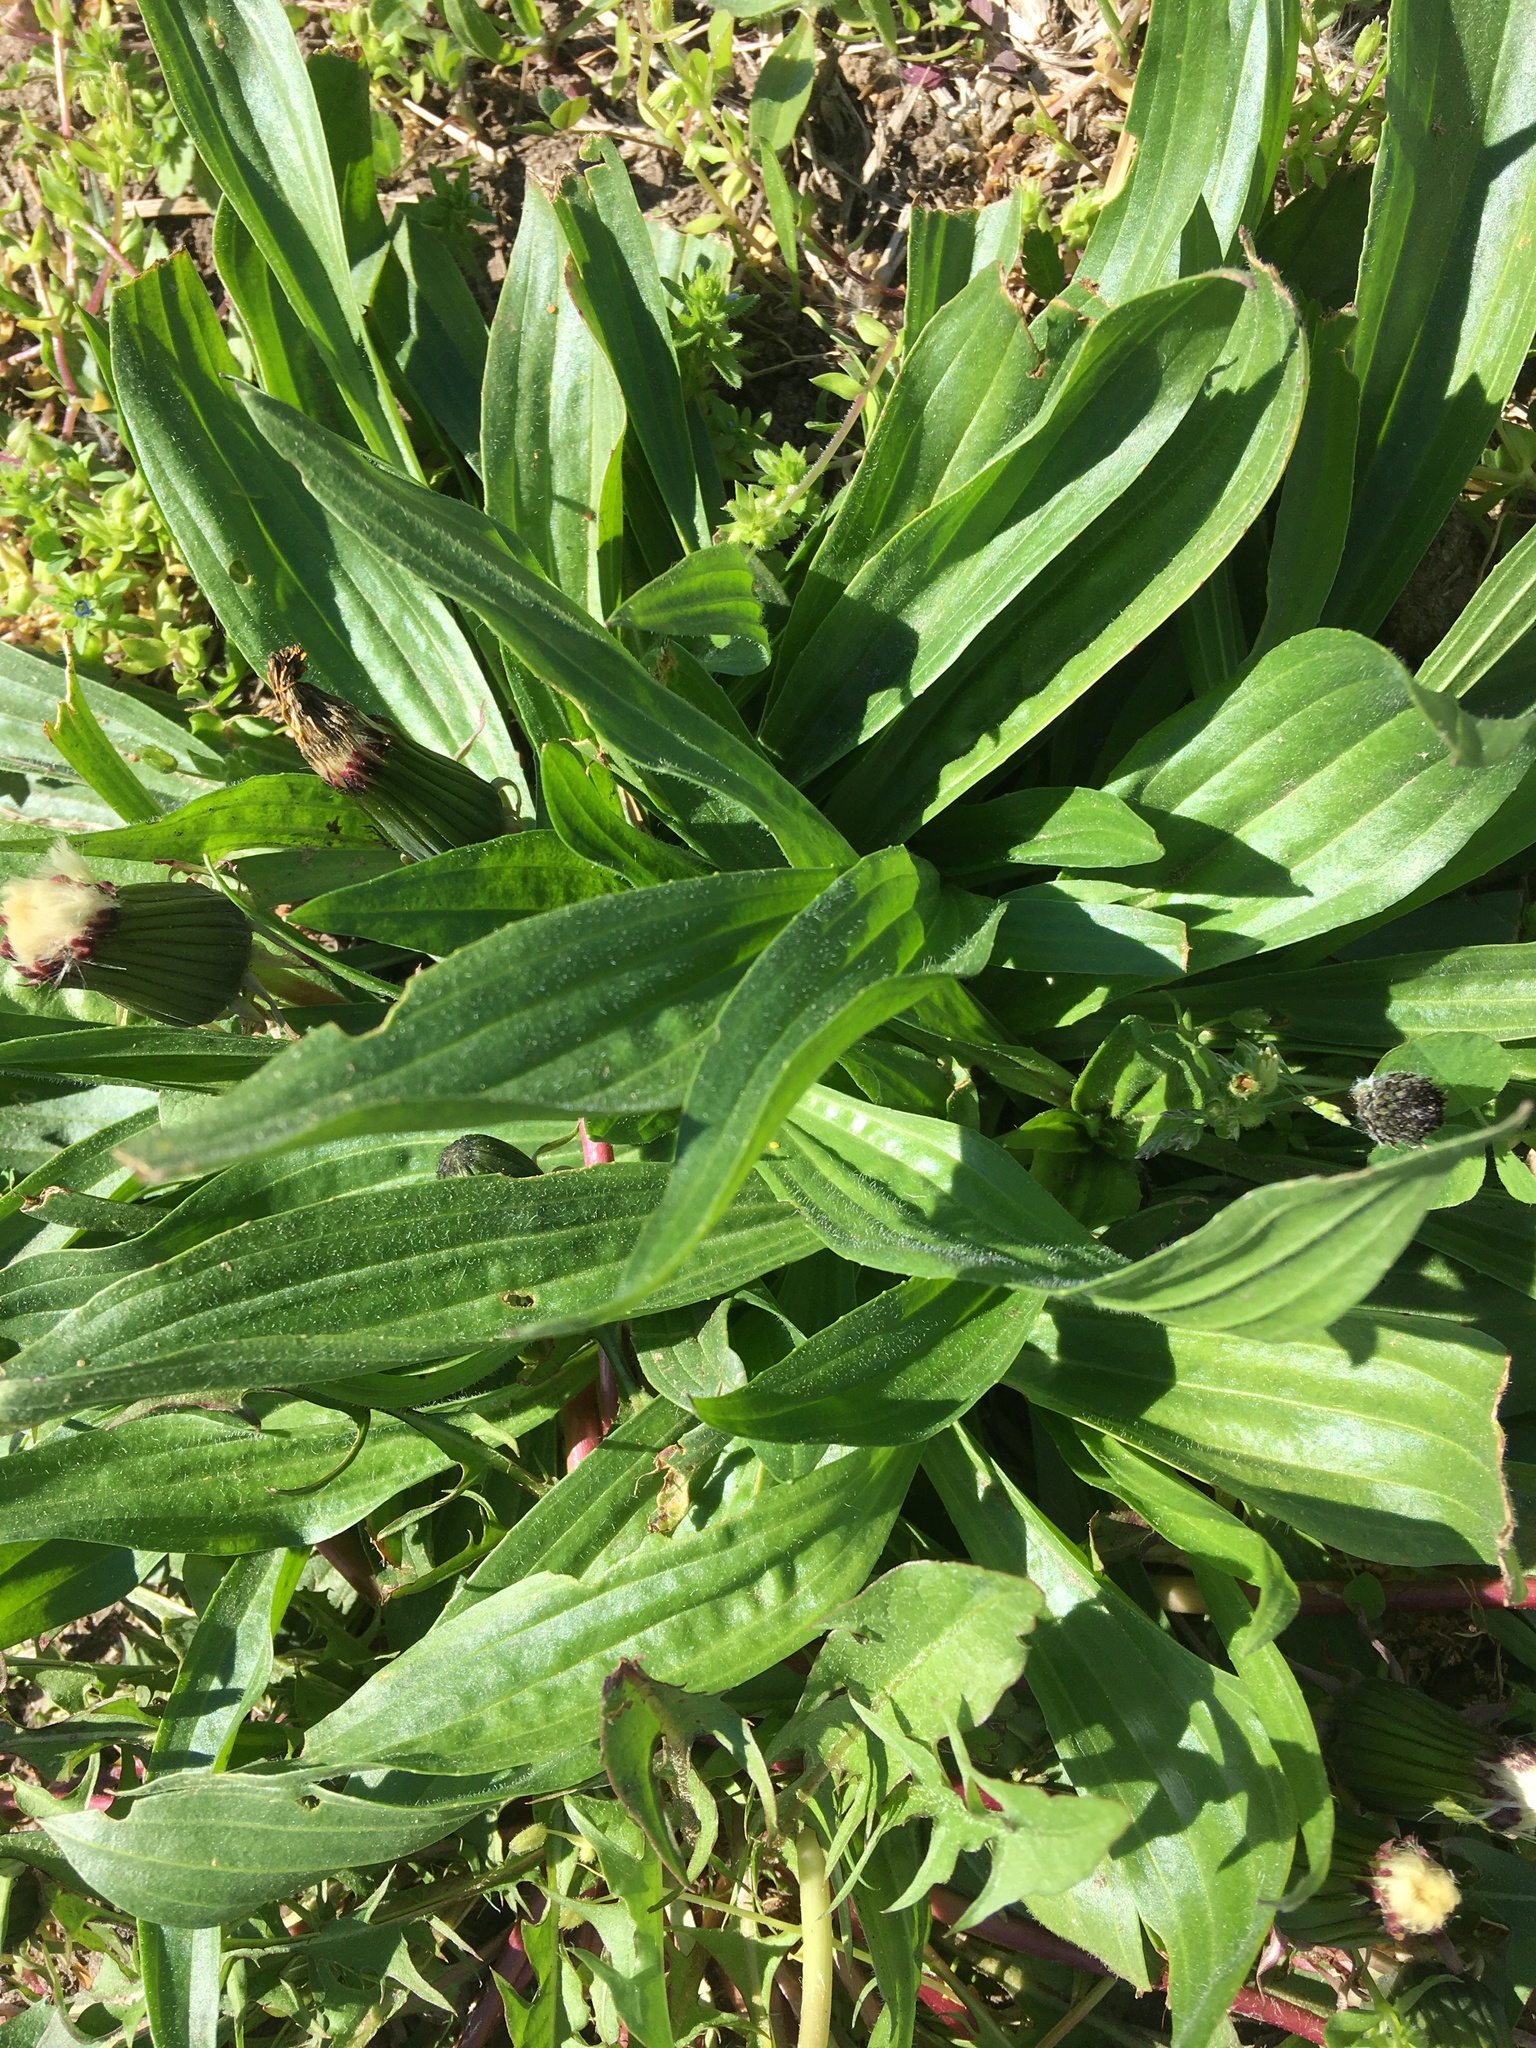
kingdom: Plantae
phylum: Tracheophyta
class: Magnoliopsida
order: Lamiales
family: Plantaginaceae
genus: Plantago
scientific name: Plantago lanceolata
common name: Ribwort plantain
